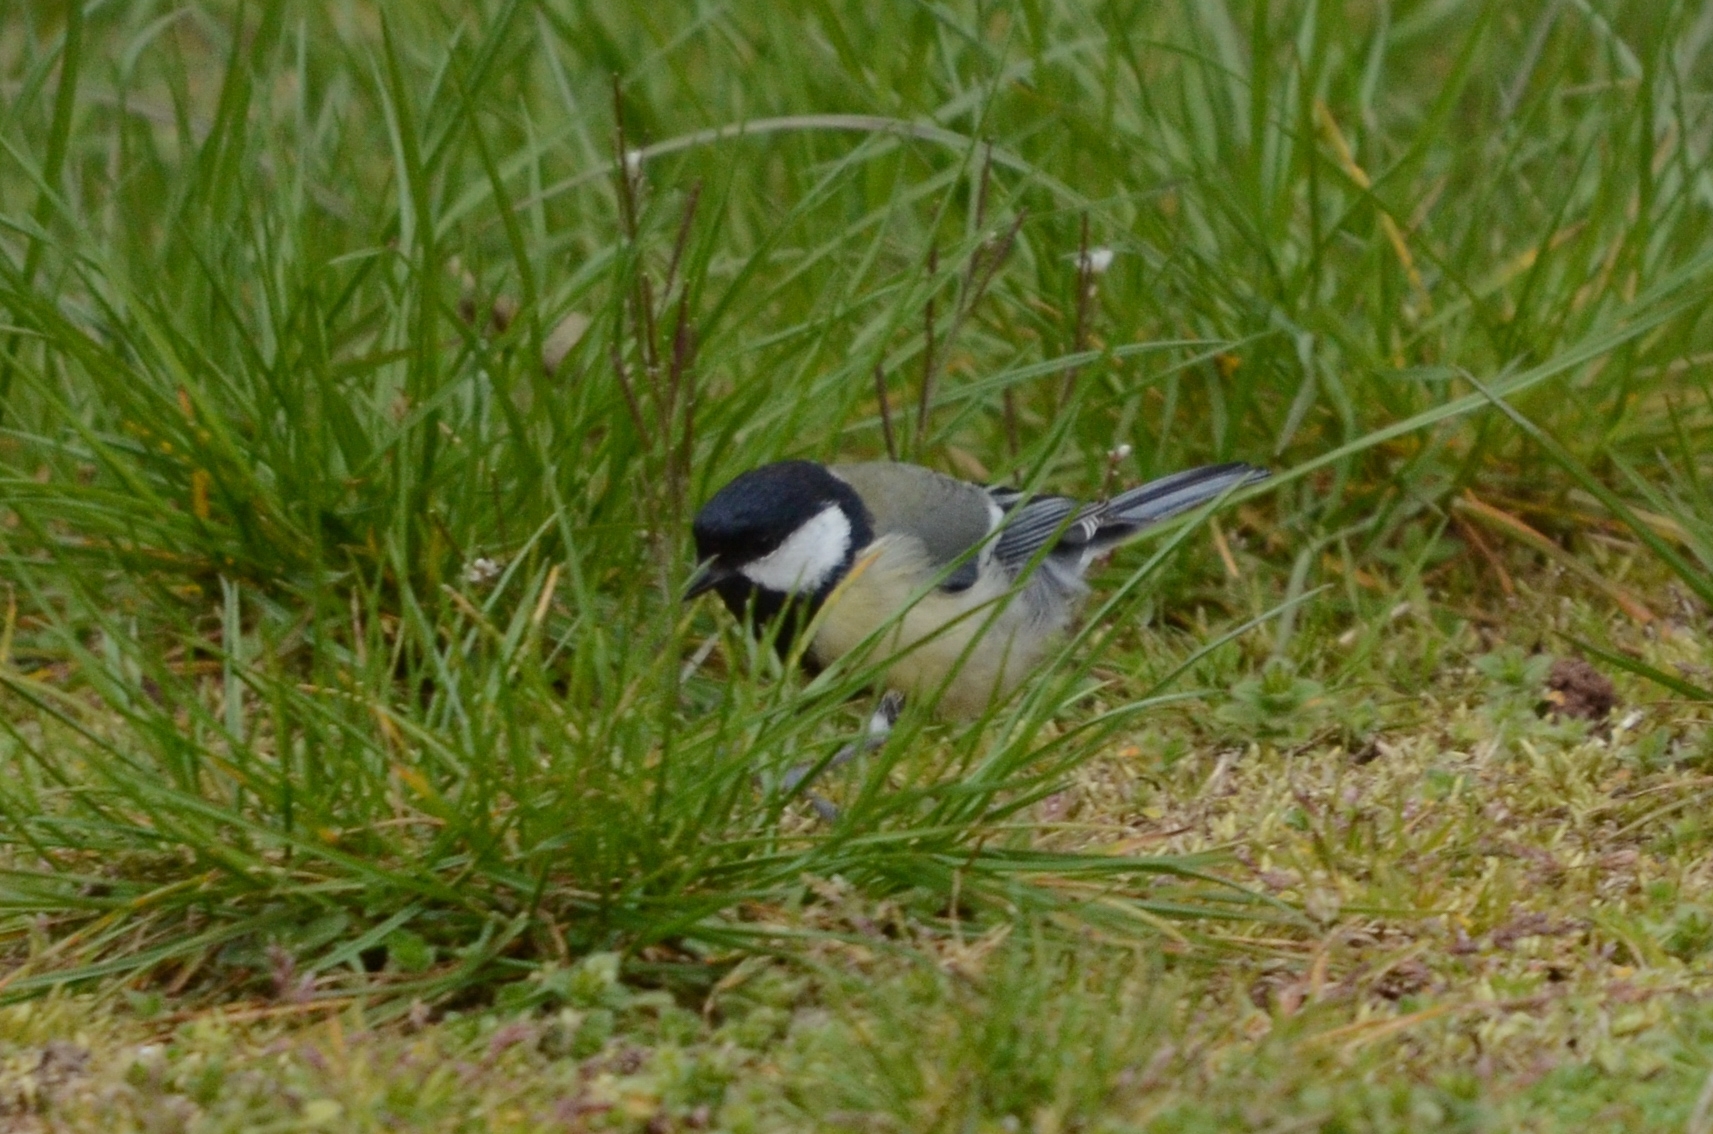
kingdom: Animalia
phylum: Chordata
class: Aves
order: Passeriformes
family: Paridae
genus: Parus
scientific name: Parus major
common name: Great tit
